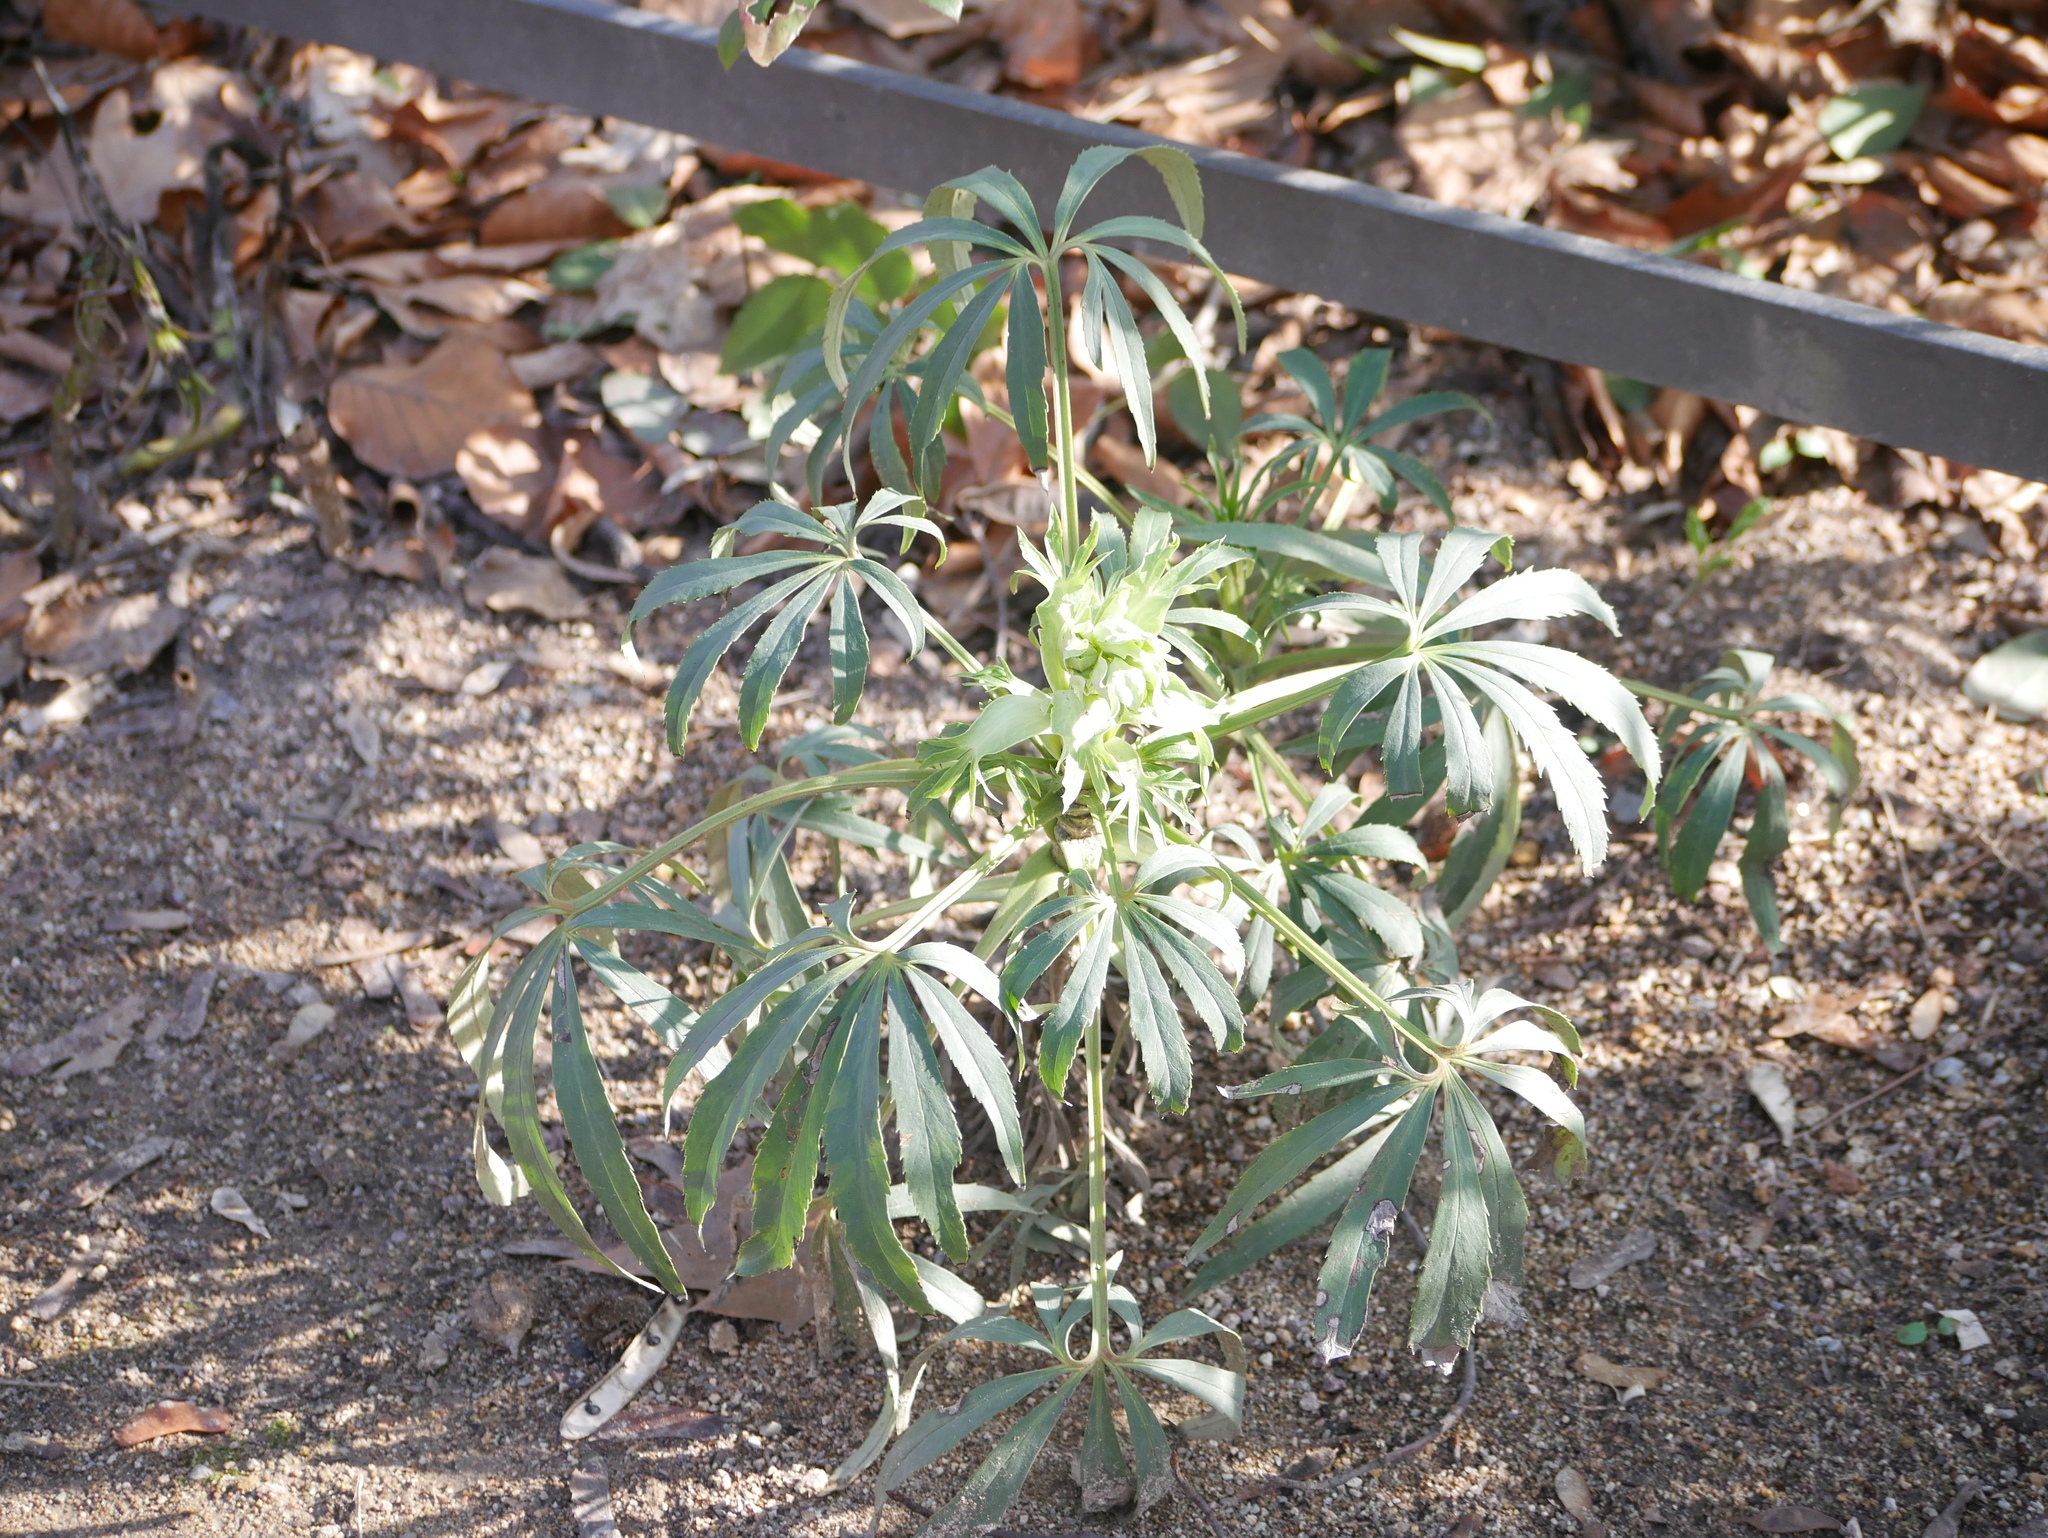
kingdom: Plantae
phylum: Tracheophyta
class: Magnoliopsida
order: Ranunculales
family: Ranunculaceae
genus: Helleborus
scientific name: Helleborus foetidus
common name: Stinking hellebore
